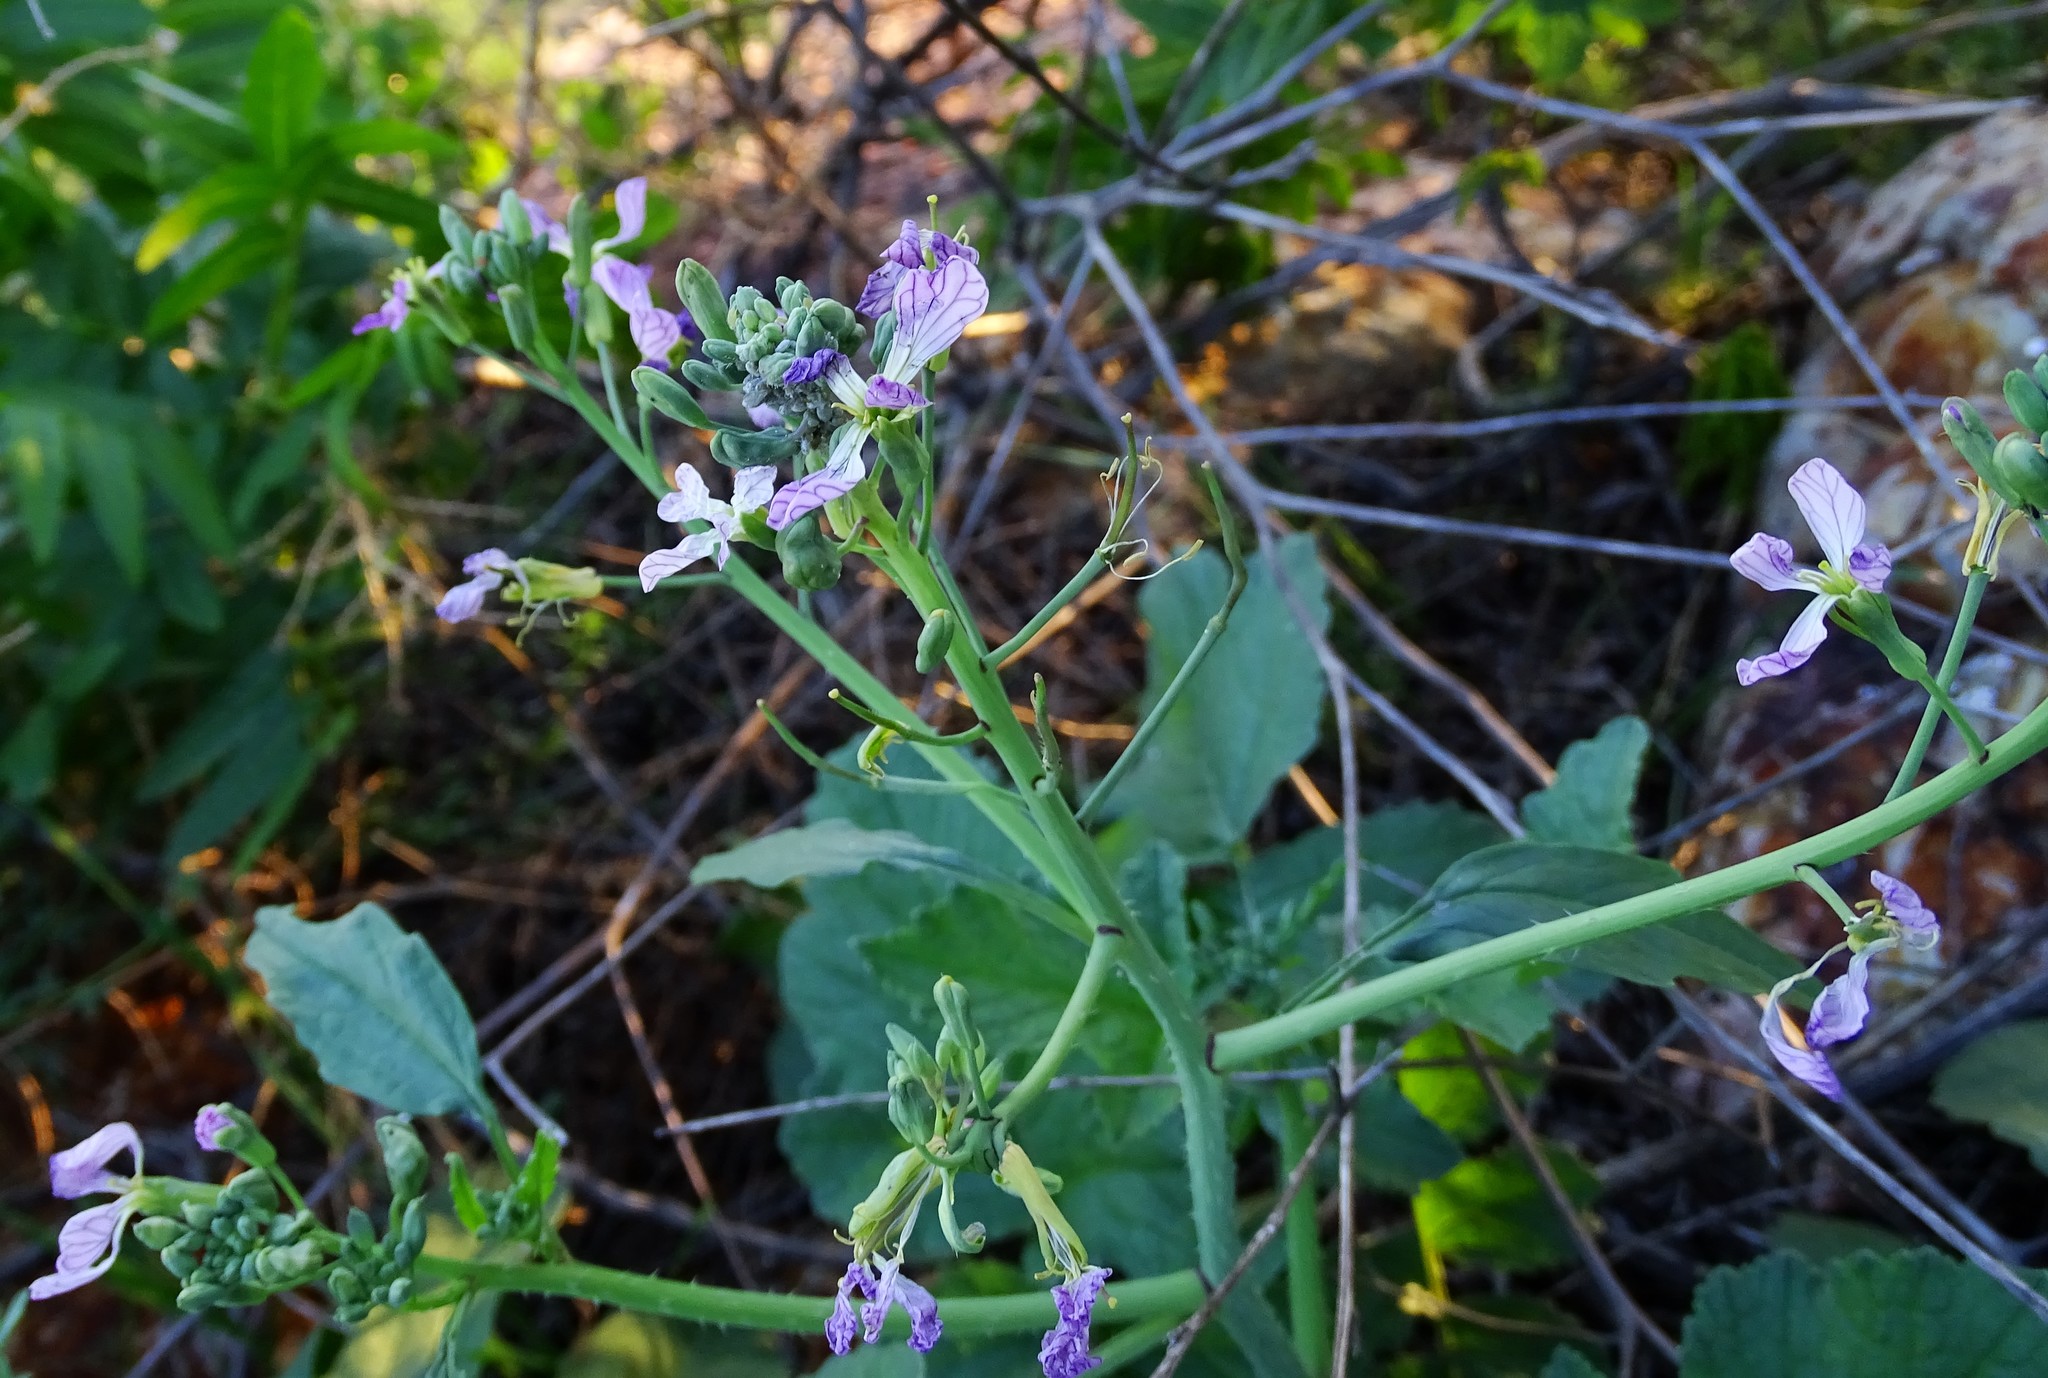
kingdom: Plantae
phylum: Tracheophyta
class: Magnoliopsida
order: Brassicales
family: Brassicaceae
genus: Raphanus
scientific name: Raphanus sativus
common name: Cultivated radish
